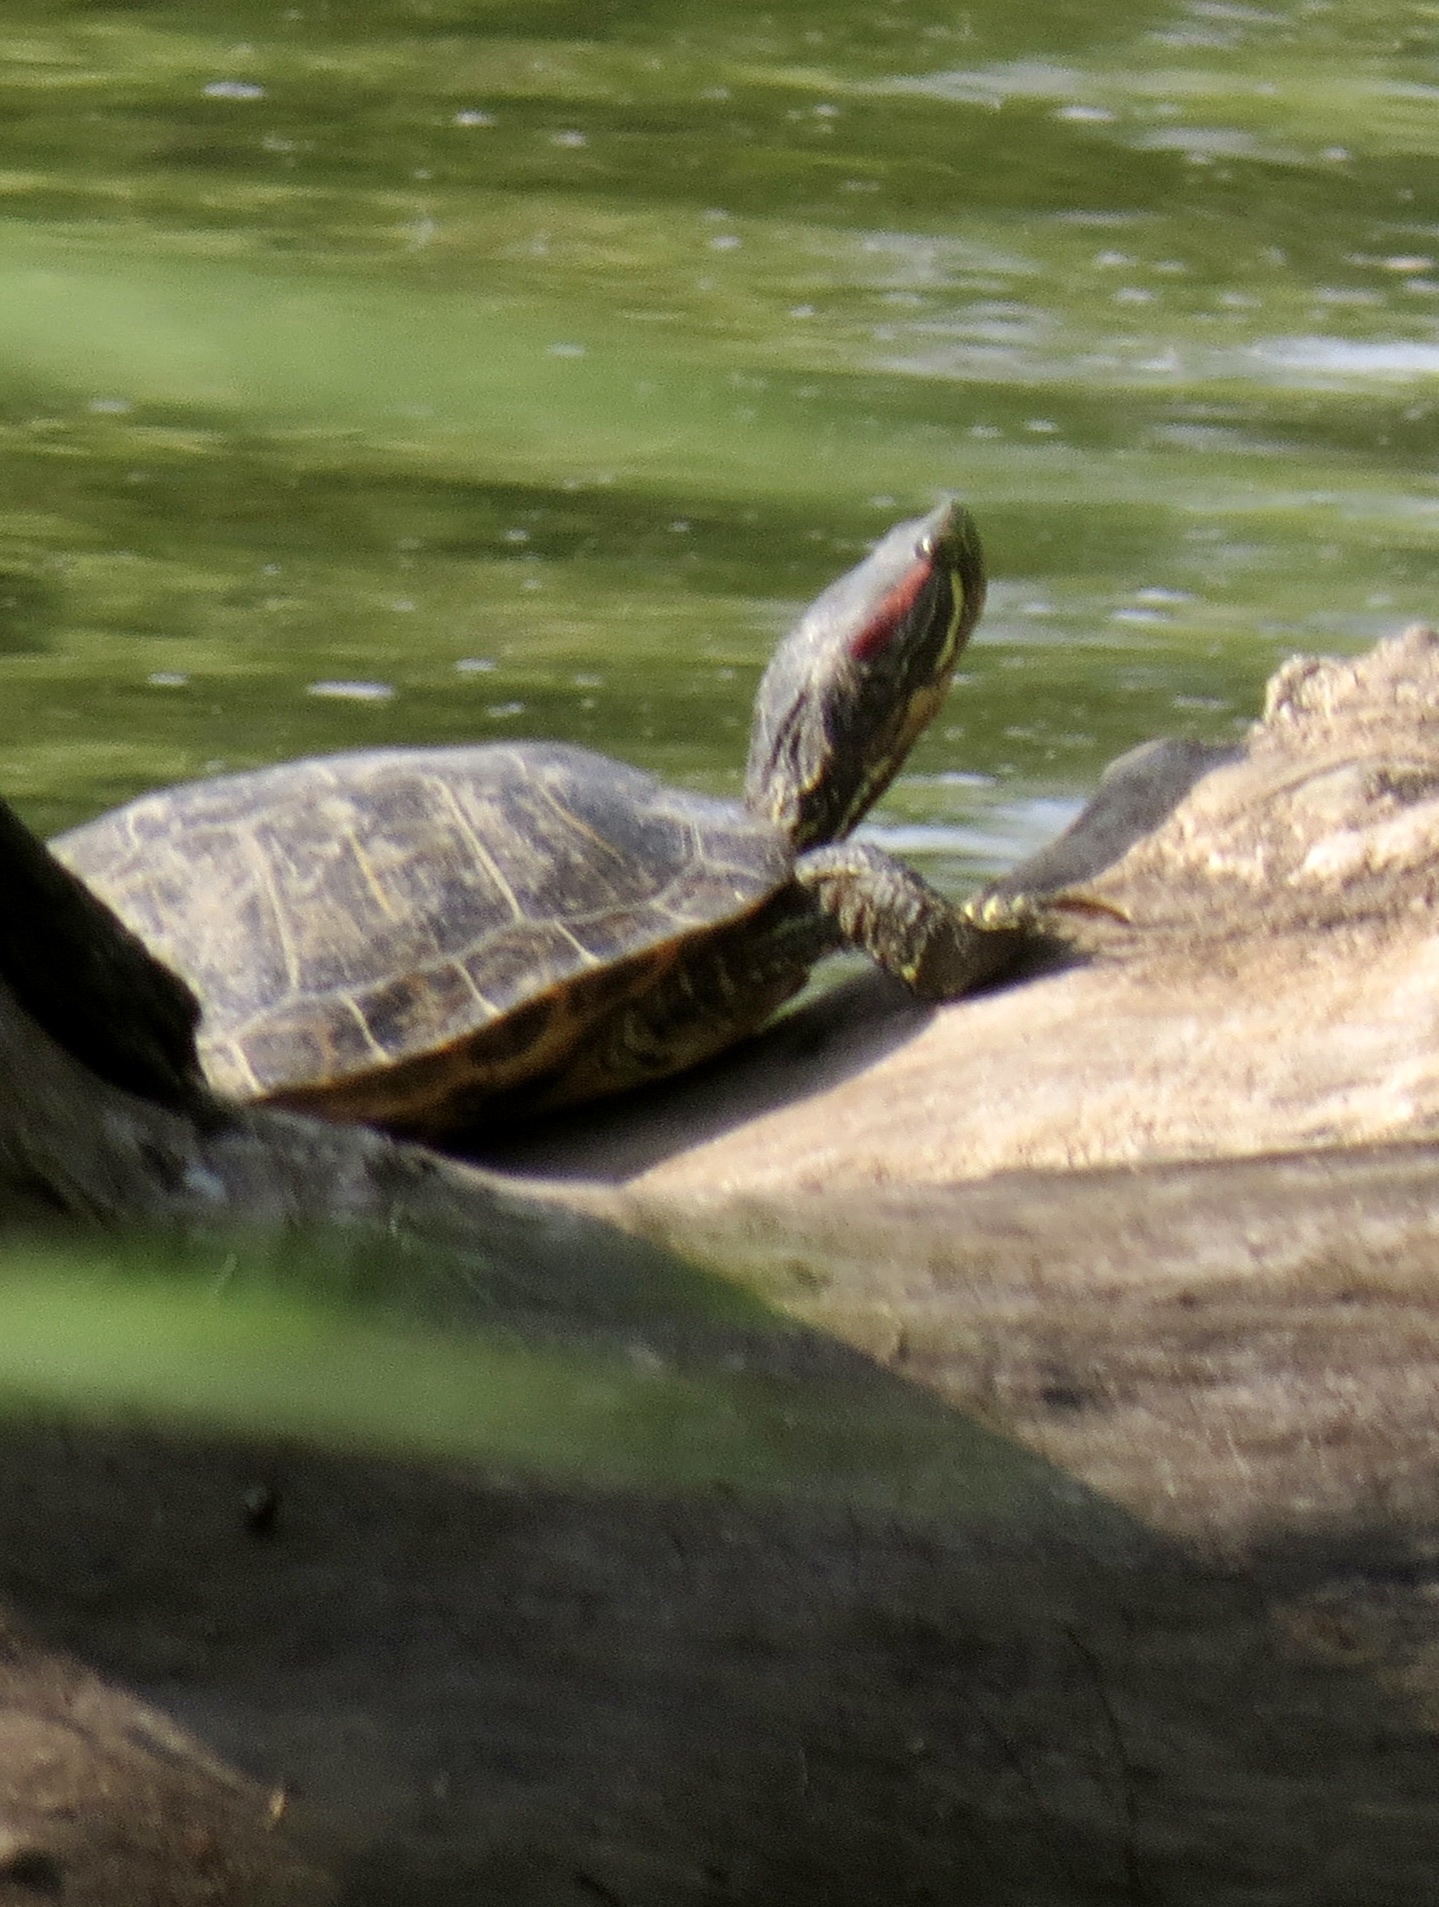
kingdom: Animalia
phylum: Chordata
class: Testudines
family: Emydidae
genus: Trachemys
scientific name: Trachemys scripta
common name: Slider
